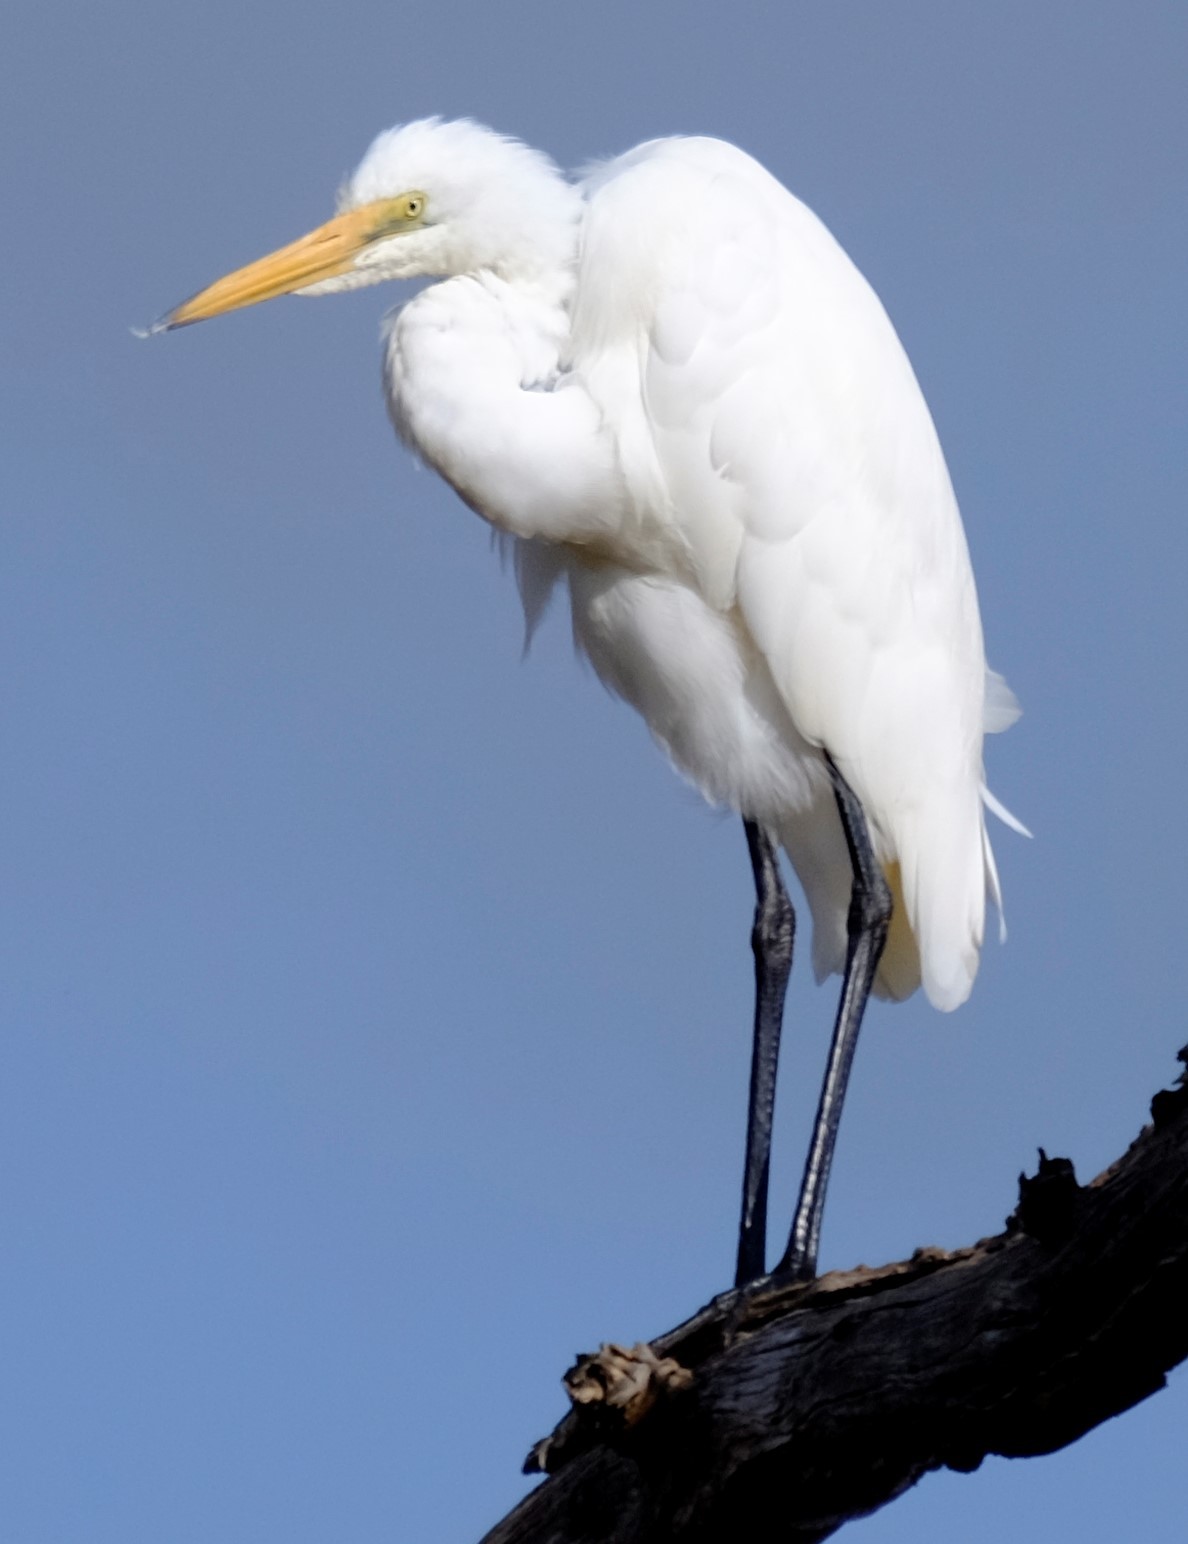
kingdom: Animalia
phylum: Chordata
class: Aves
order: Pelecaniformes
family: Ardeidae
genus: Ardea
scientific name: Ardea modesta
